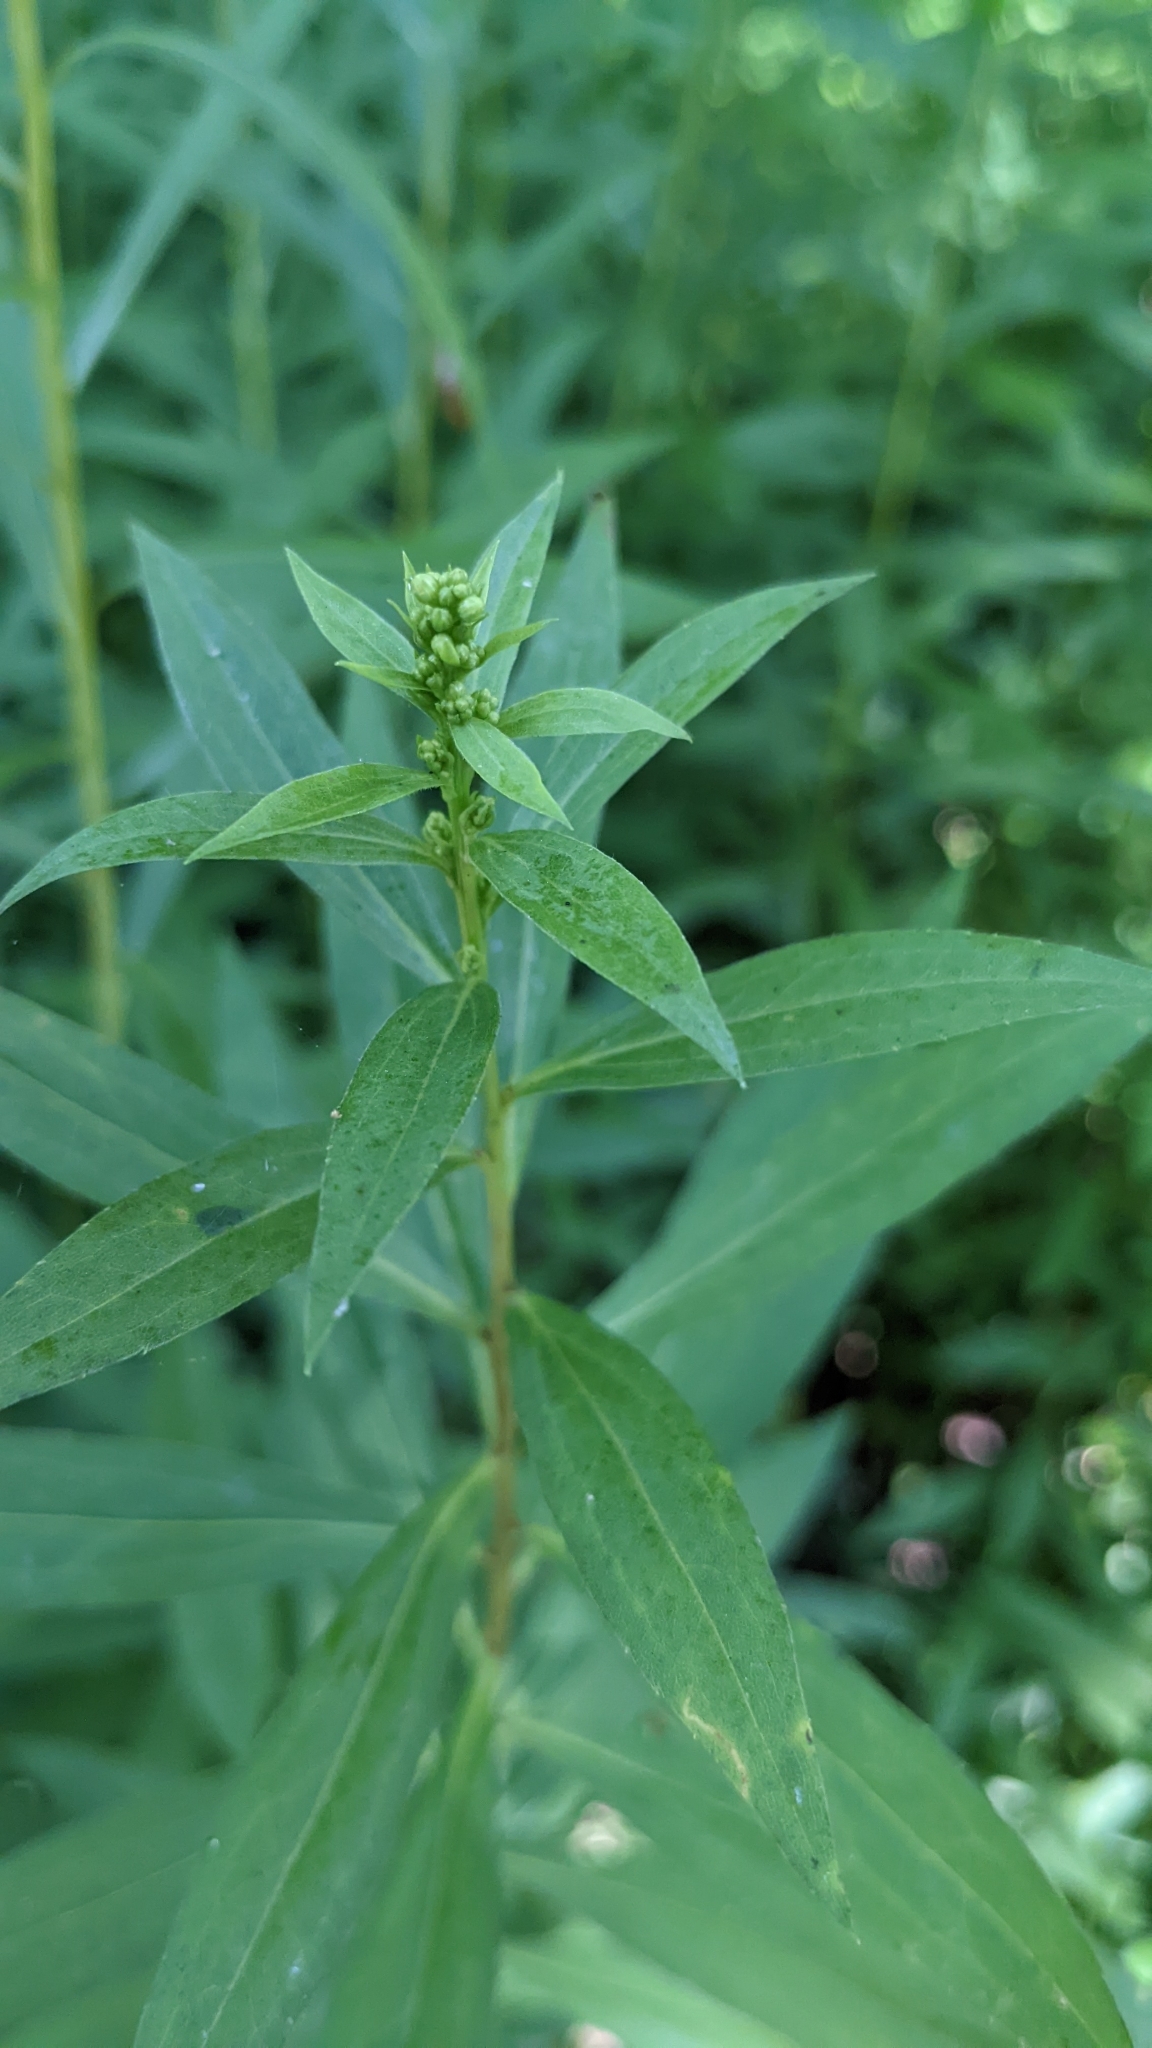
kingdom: Plantae
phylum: Tracheophyta
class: Magnoliopsida
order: Asterales
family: Asteraceae
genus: Solidago
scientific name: Solidago gigantea
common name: Giant goldenrod
